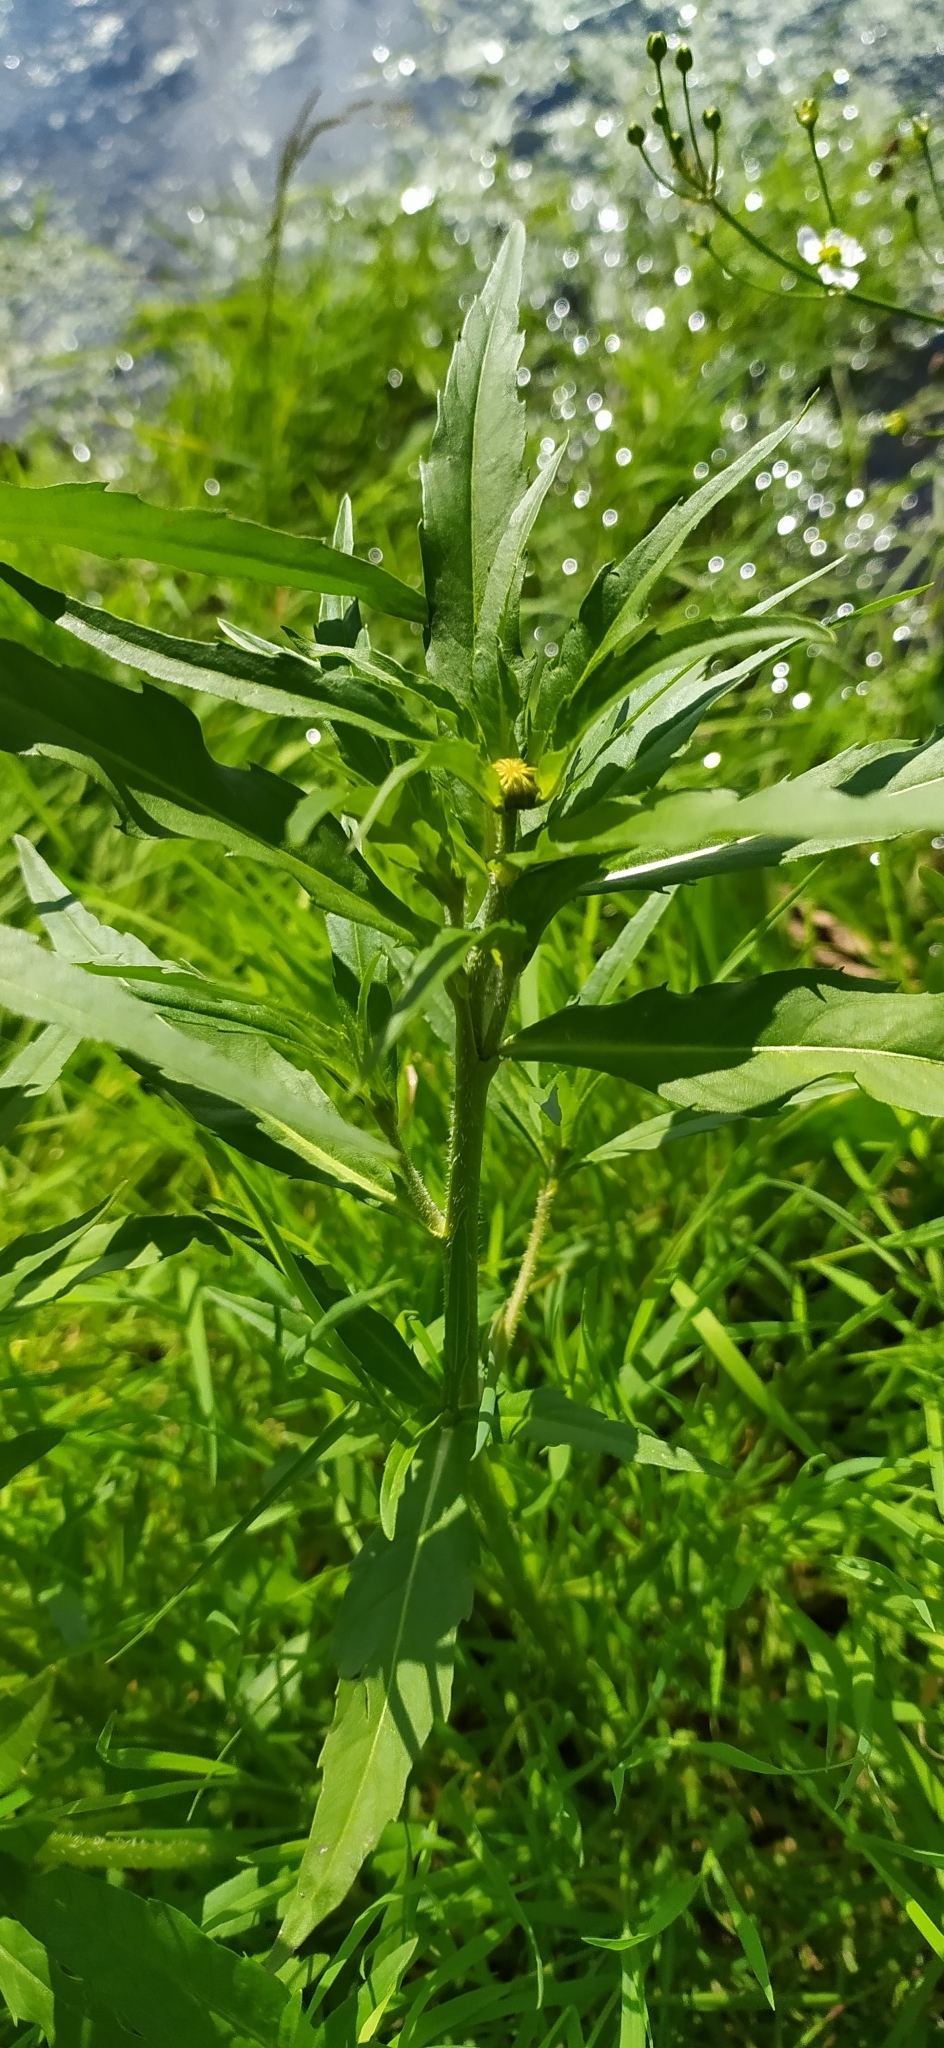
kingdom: Plantae
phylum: Tracheophyta
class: Magnoliopsida
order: Asterales
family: Asteraceae
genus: Bidens
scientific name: Bidens cernua
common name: Nodding bur-marigold
